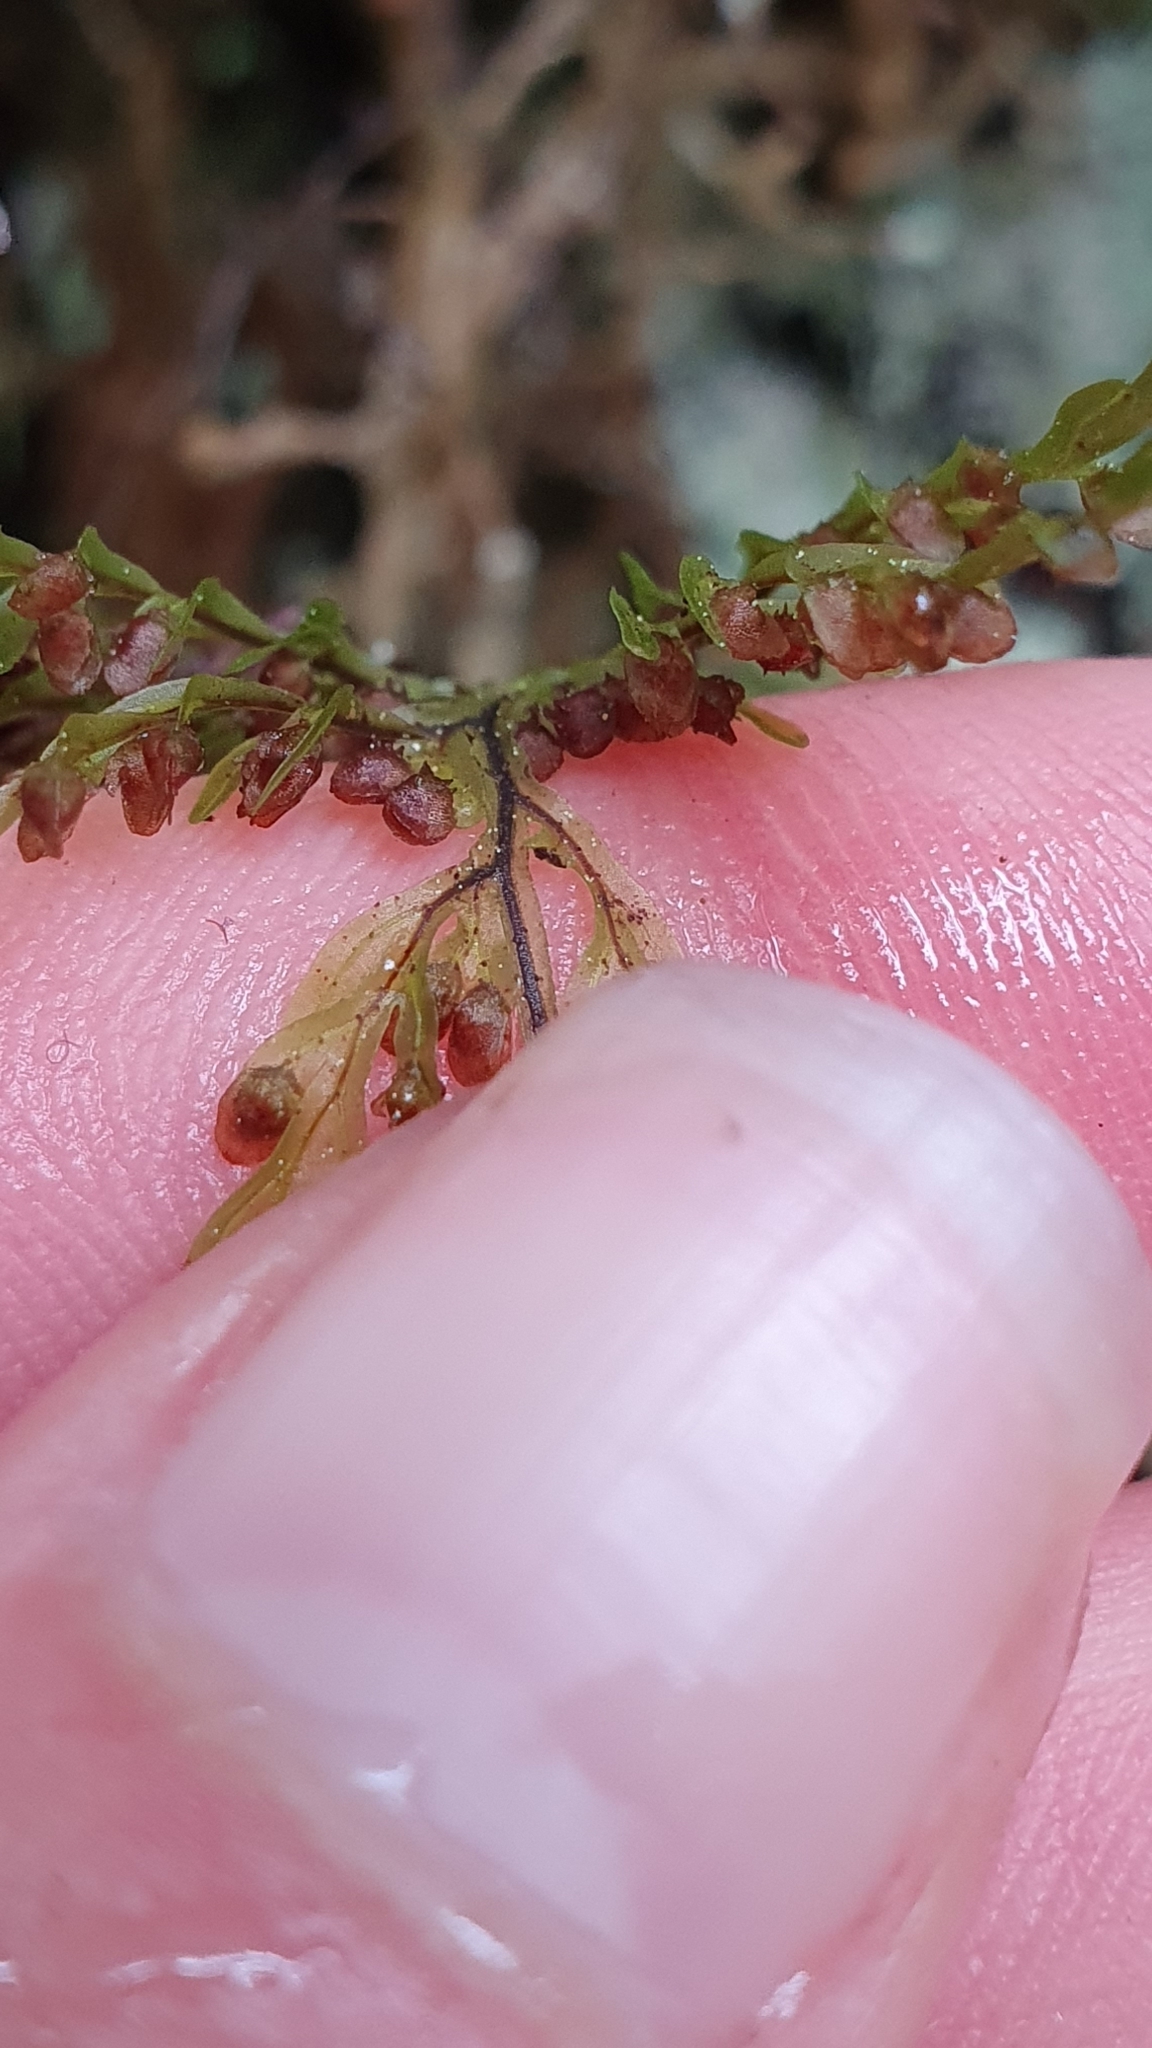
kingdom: Plantae
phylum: Tracheophyta
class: Polypodiopsida
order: Hymenophyllales
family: Hymenophyllaceae
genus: Hymenophyllum
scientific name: Hymenophyllum sanguinolentum
